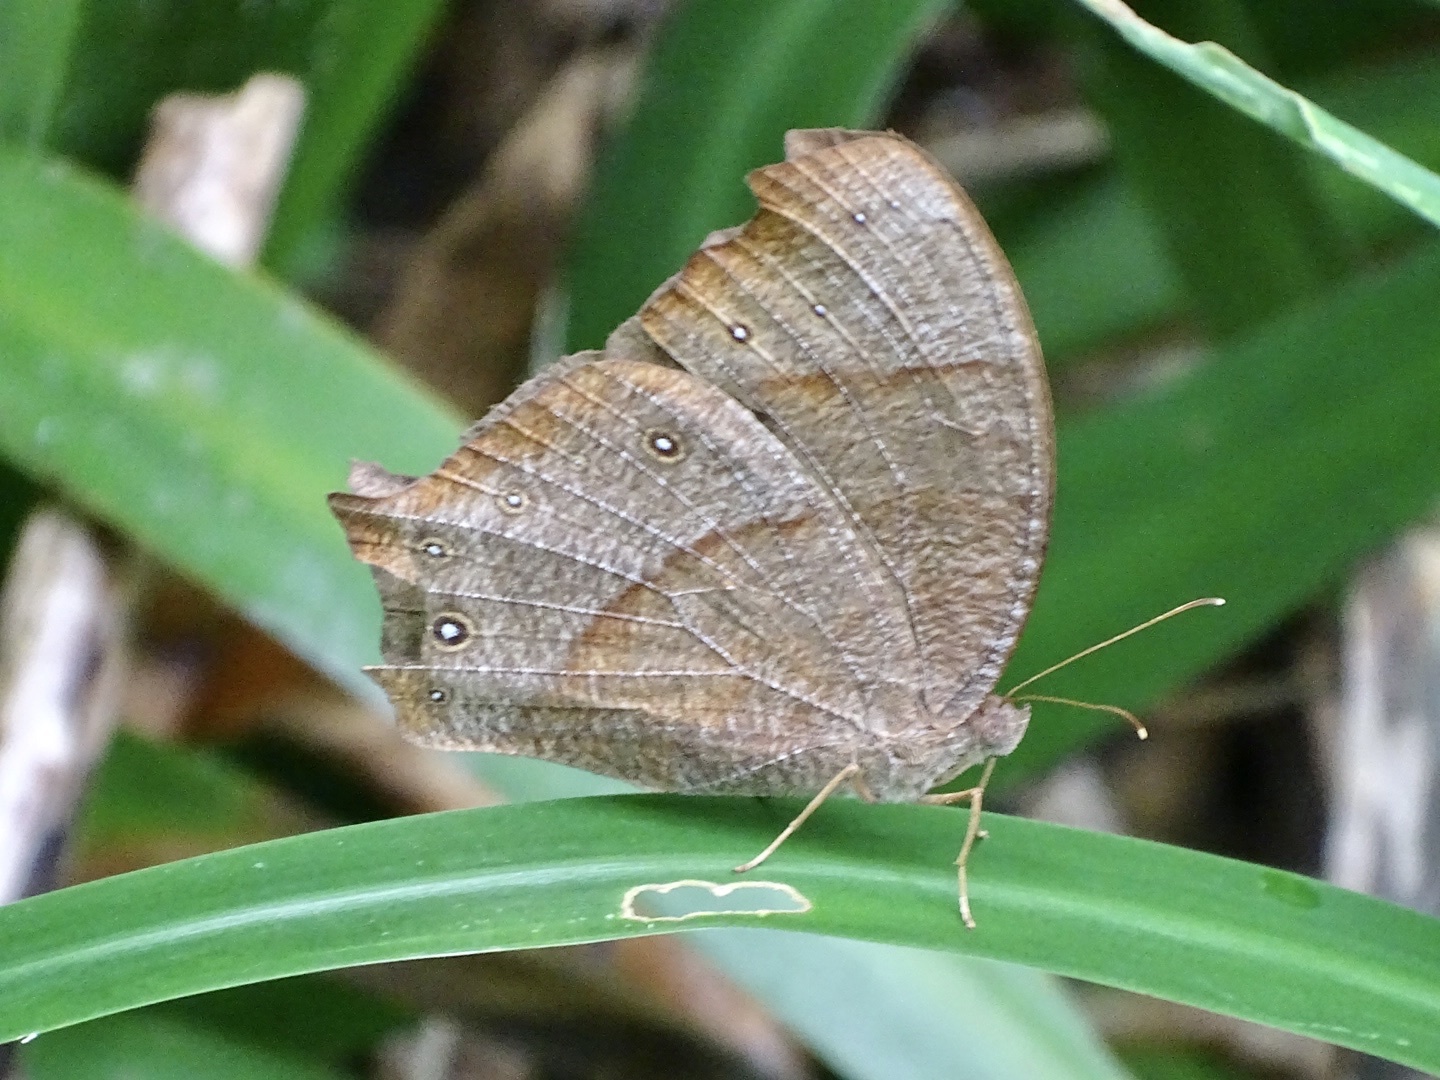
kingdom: Animalia
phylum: Arthropoda
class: Insecta
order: Lepidoptera
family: Nymphalidae
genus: Melanitis
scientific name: Melanitis leda
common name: Twilight brown
